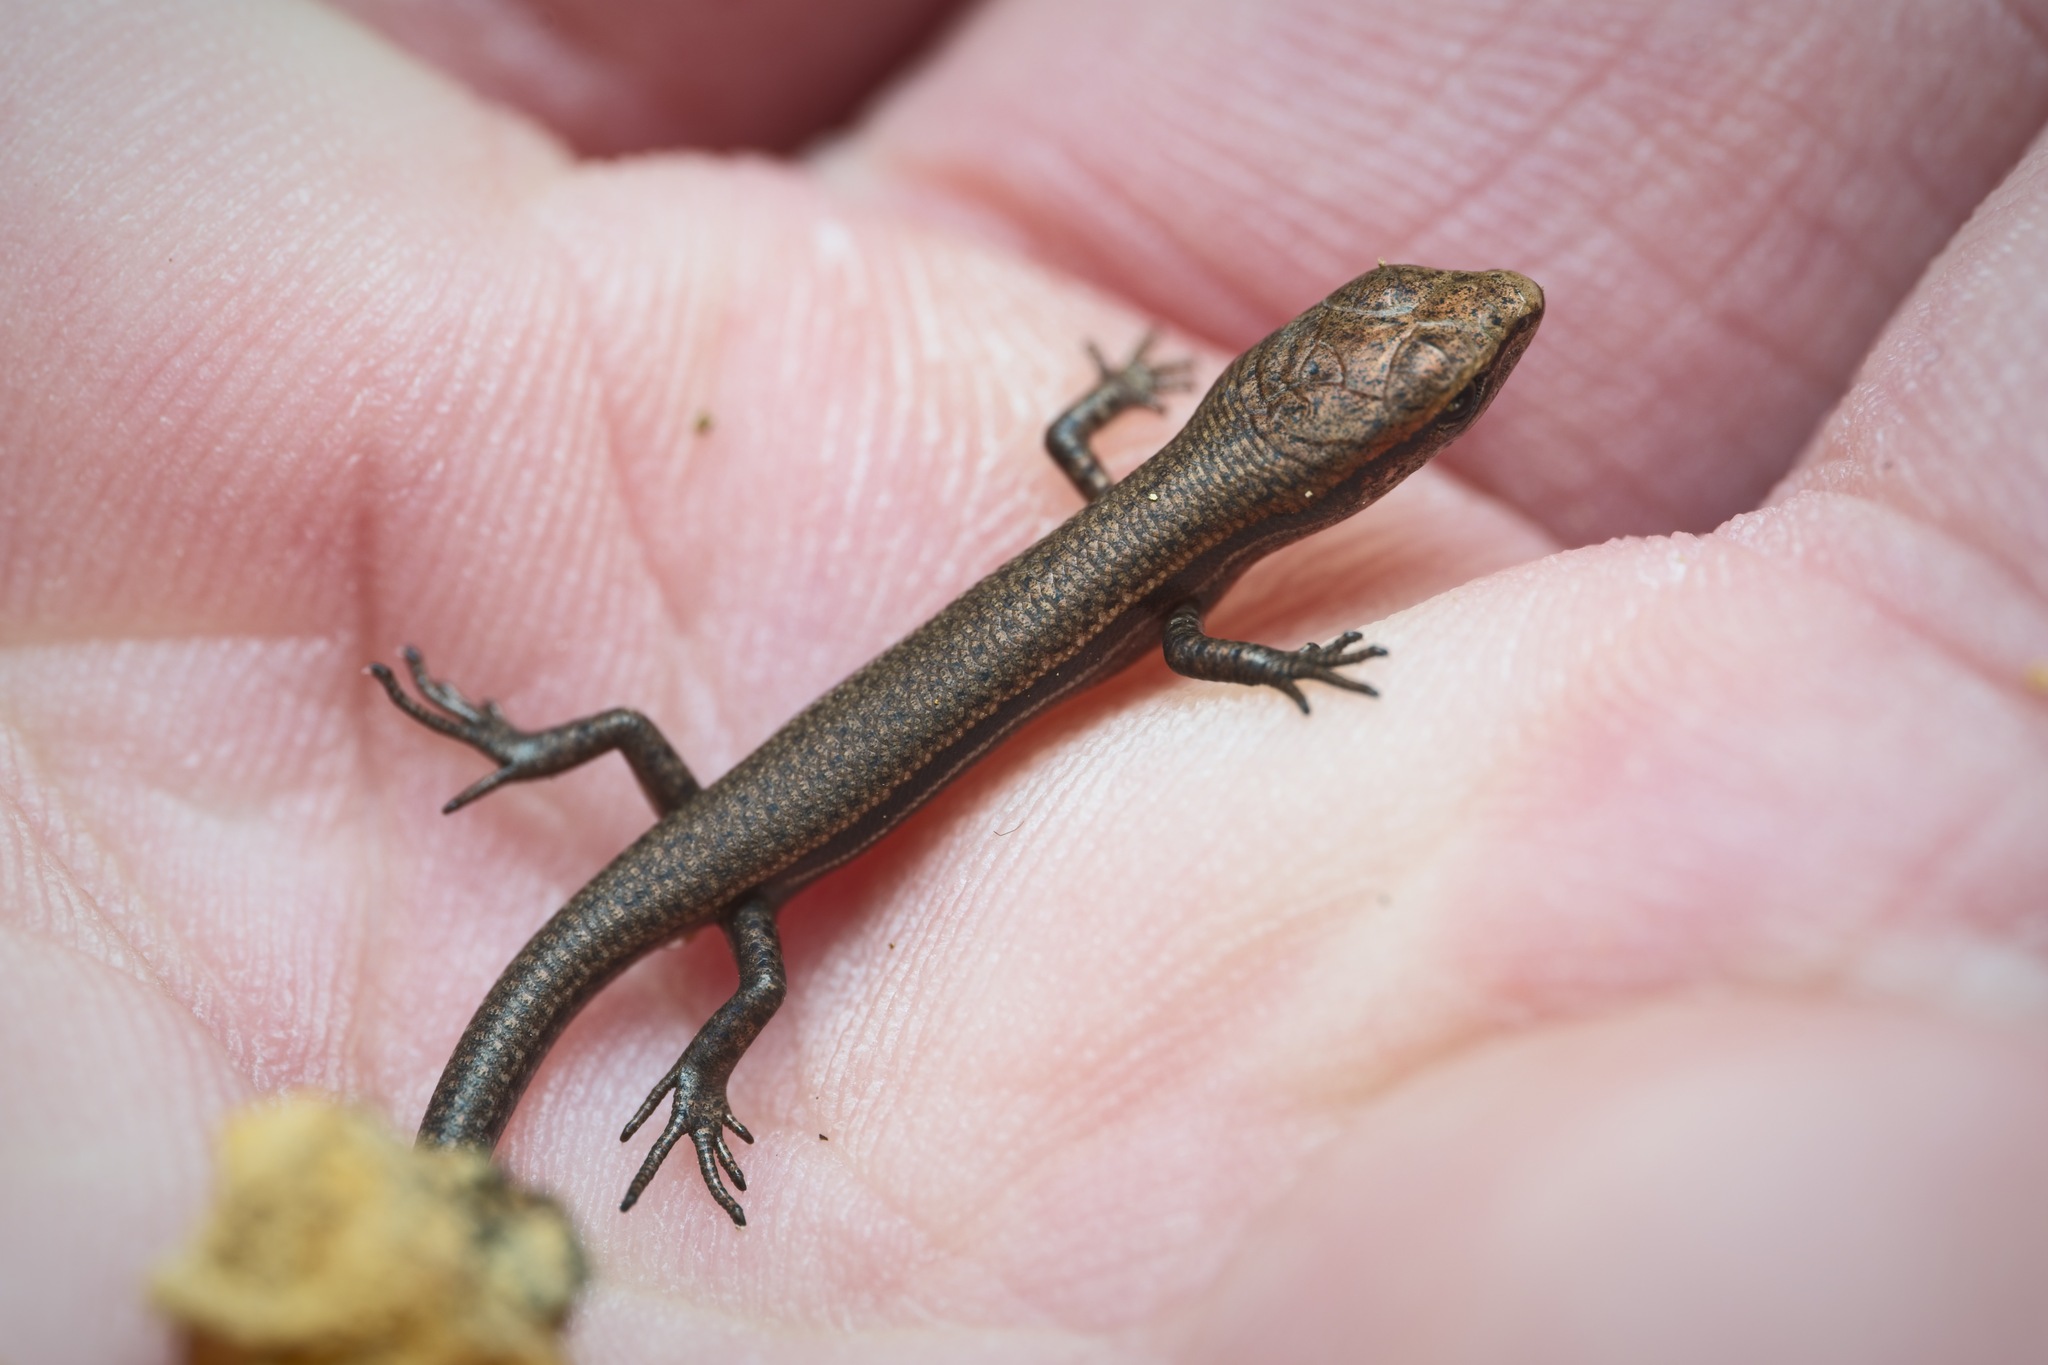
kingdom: Animalia
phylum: Chordata
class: Squamata
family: Scincidae
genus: Lampropholis
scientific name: Lampropholis delicata
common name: Plague skink
